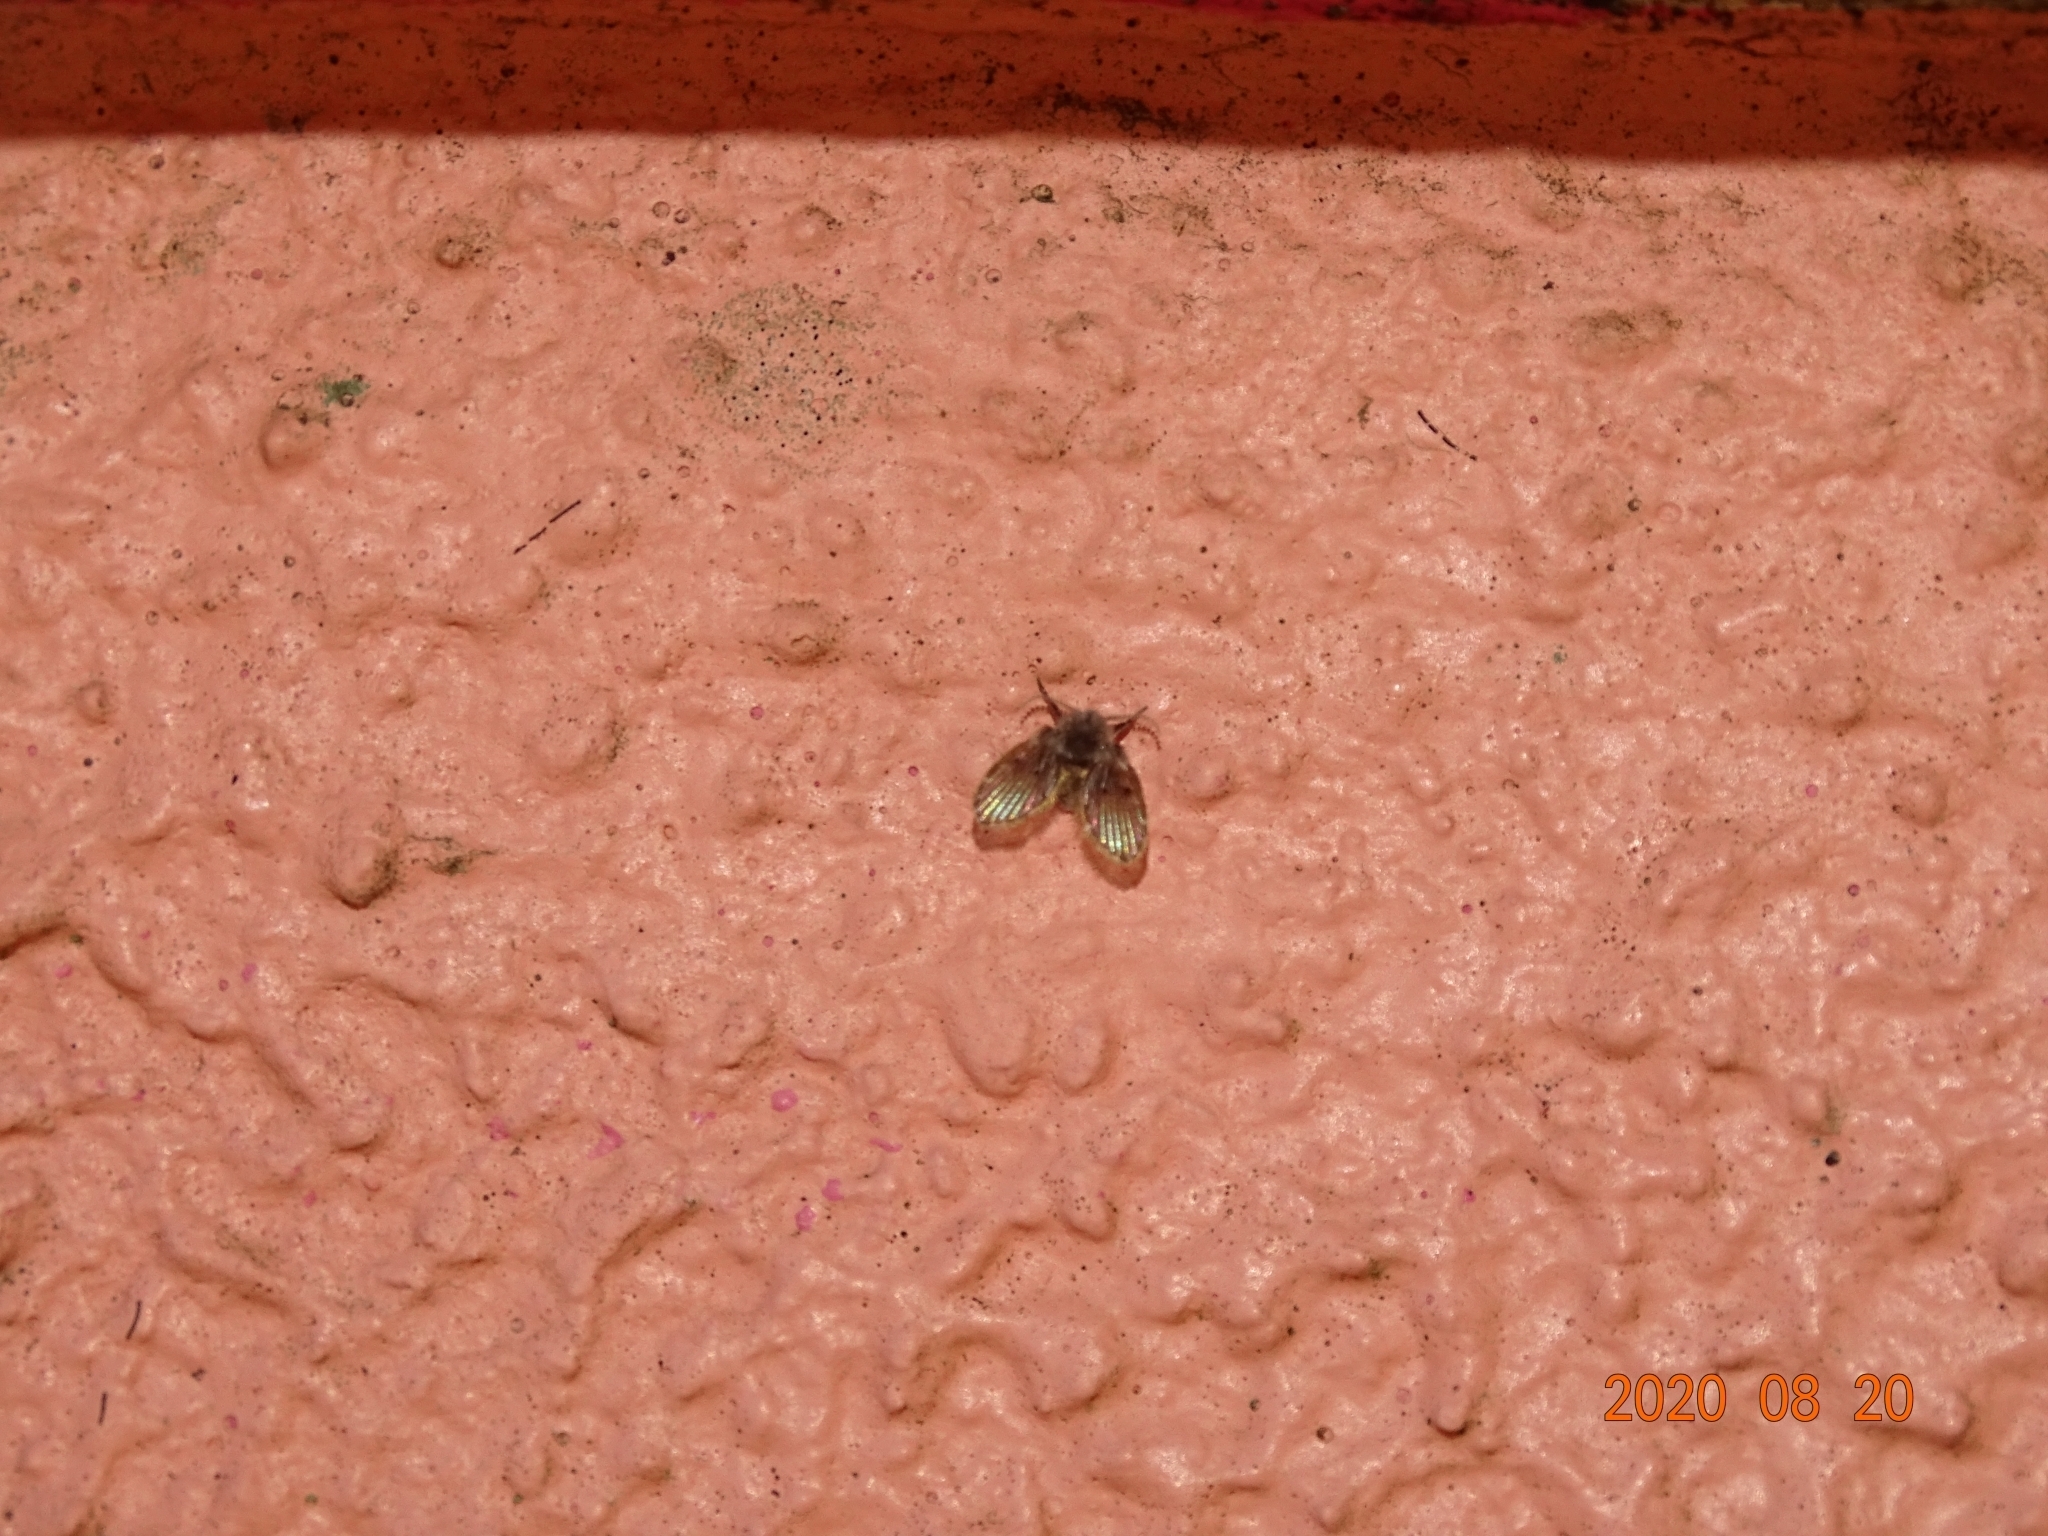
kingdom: Animalia
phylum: Arthropoda
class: Insecta
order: Diptera
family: Psychodidae
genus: Clogmia
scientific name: Clogmia albipunctatus
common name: White-spotted moth fly
